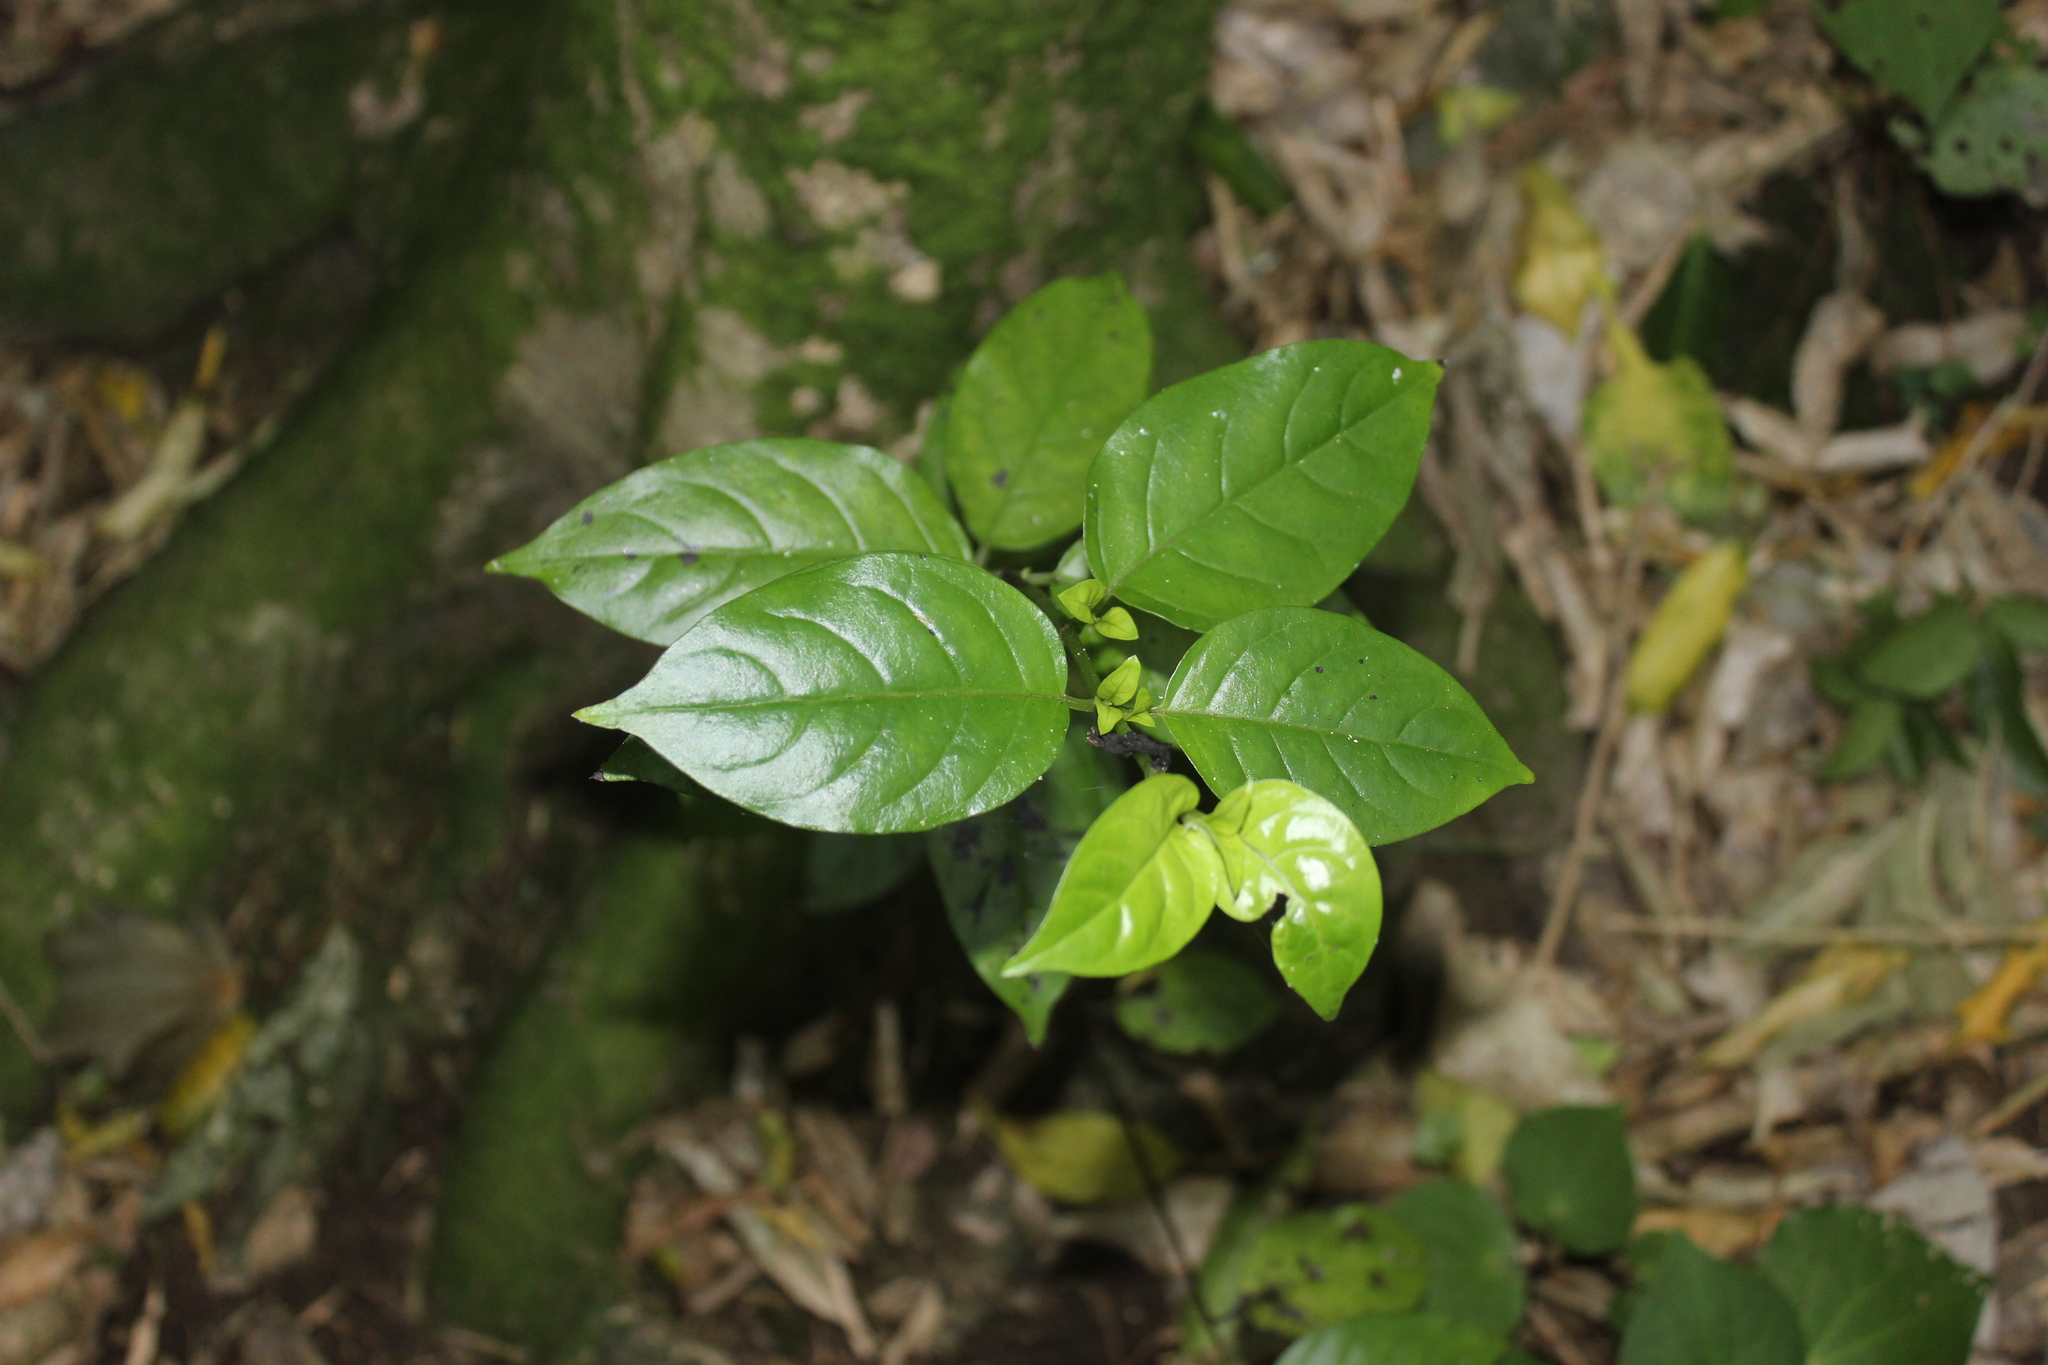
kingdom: Plantae
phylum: Tracheophyta
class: Magnoliopsida
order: Gentianales
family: Loganiaceae
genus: Geniostoma
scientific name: Geniostoma ligustrifolium
